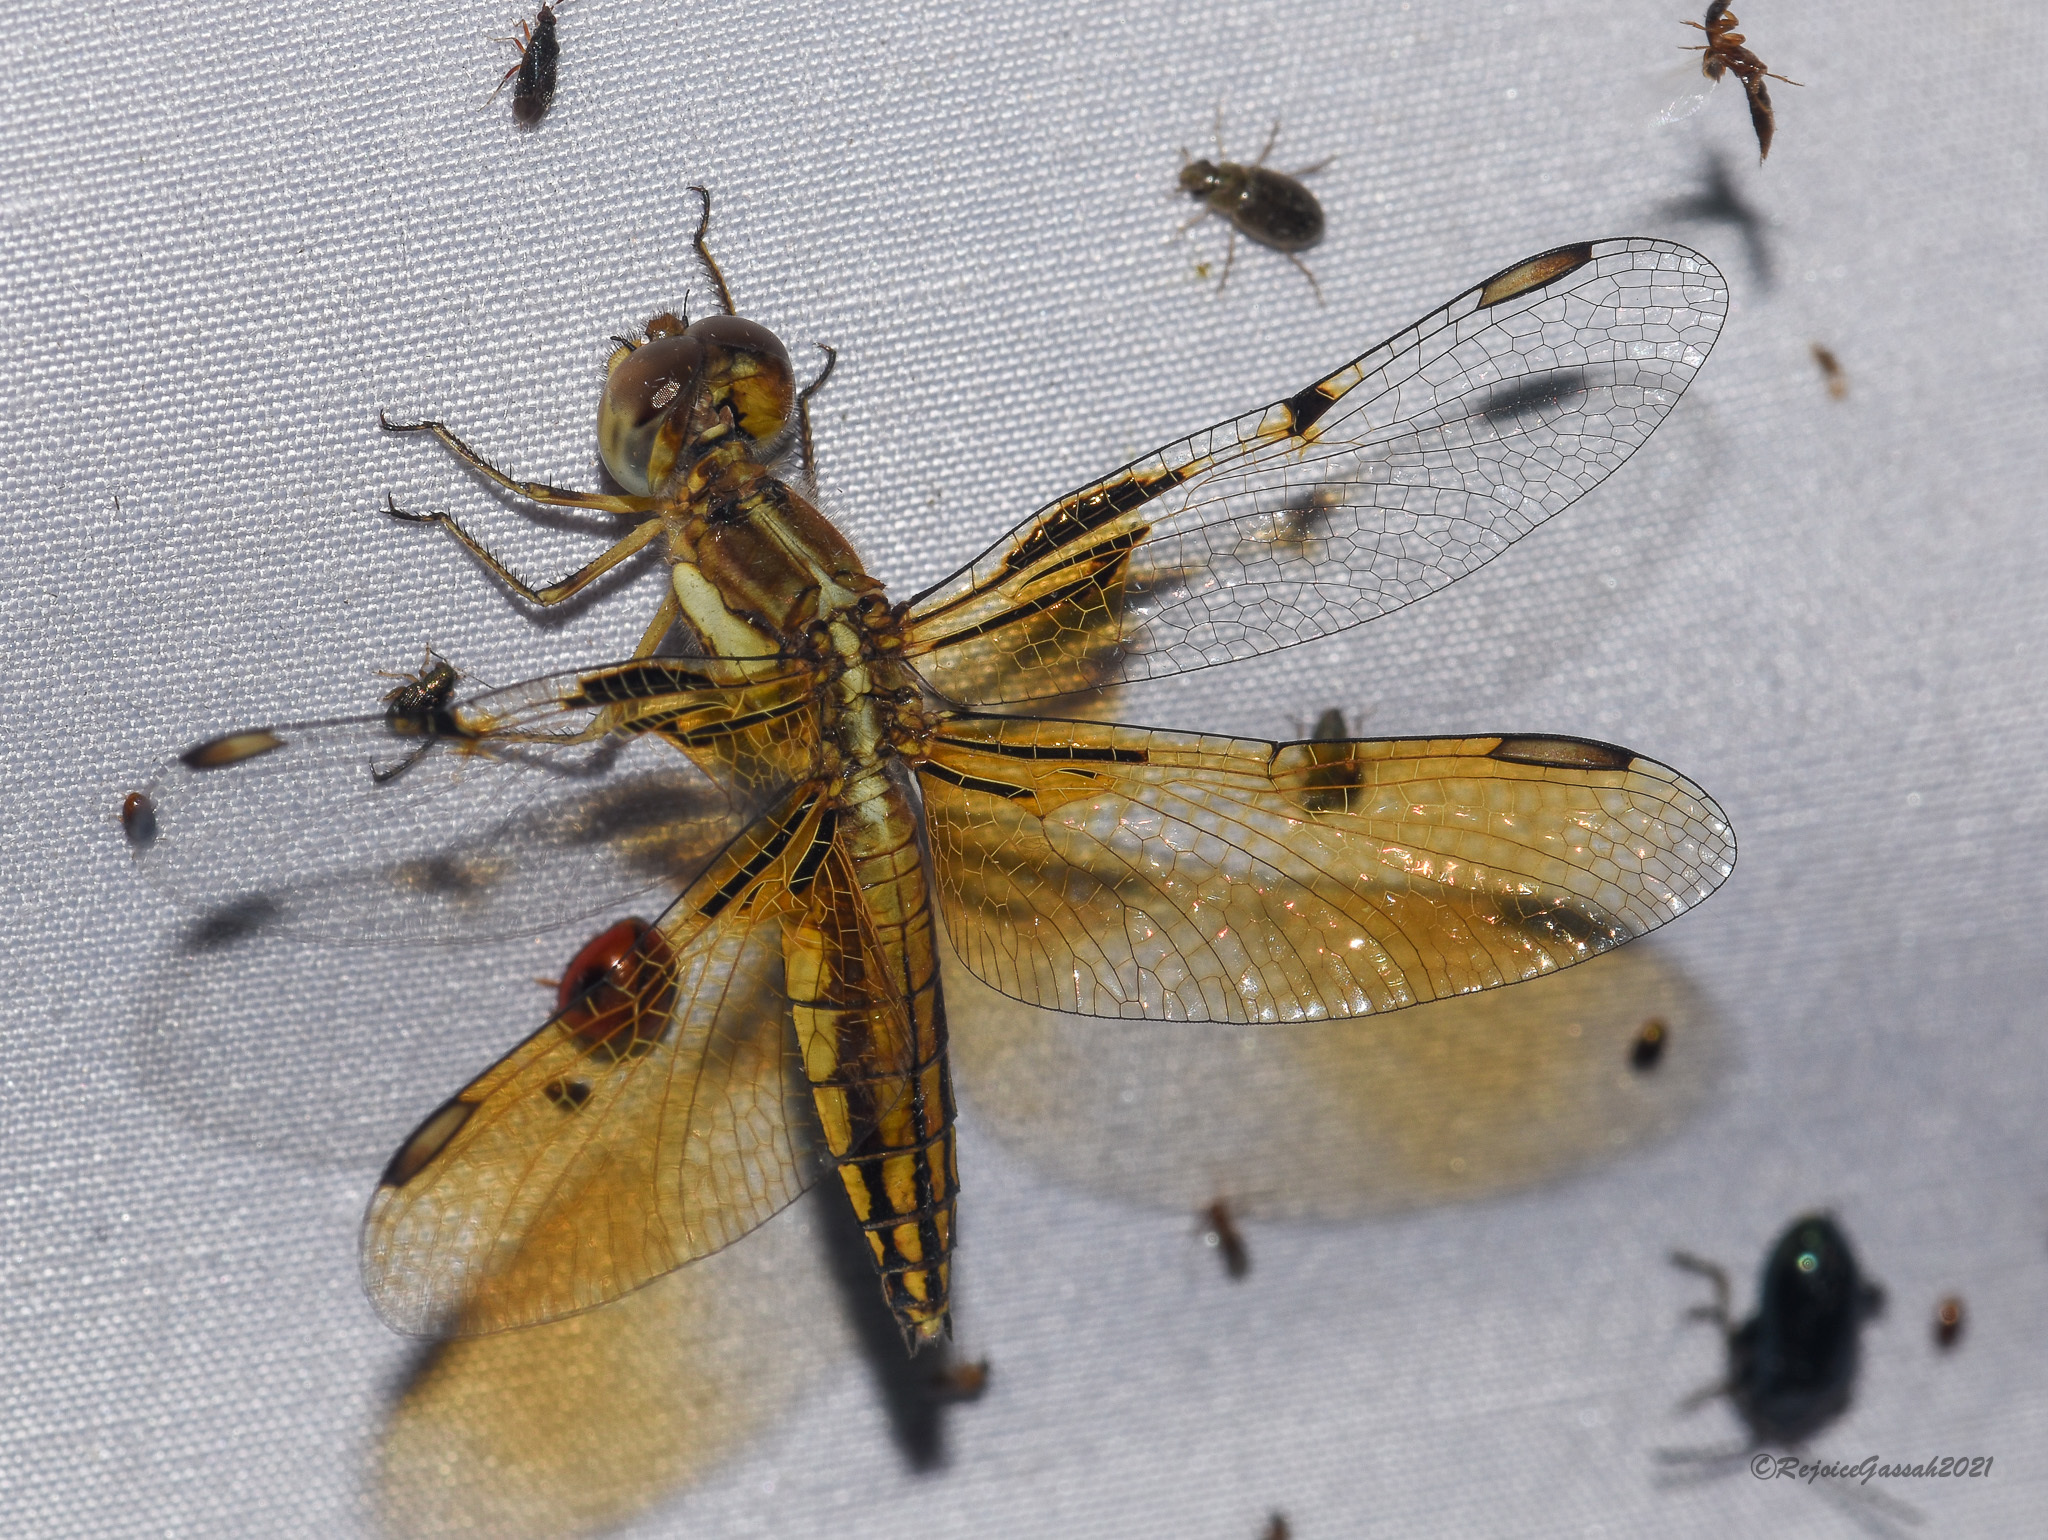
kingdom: Animalia
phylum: Arthropoda
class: Insecta
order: Odonata
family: Libellulidae
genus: Palpopleura
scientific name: Palpopleura sexmaculata
